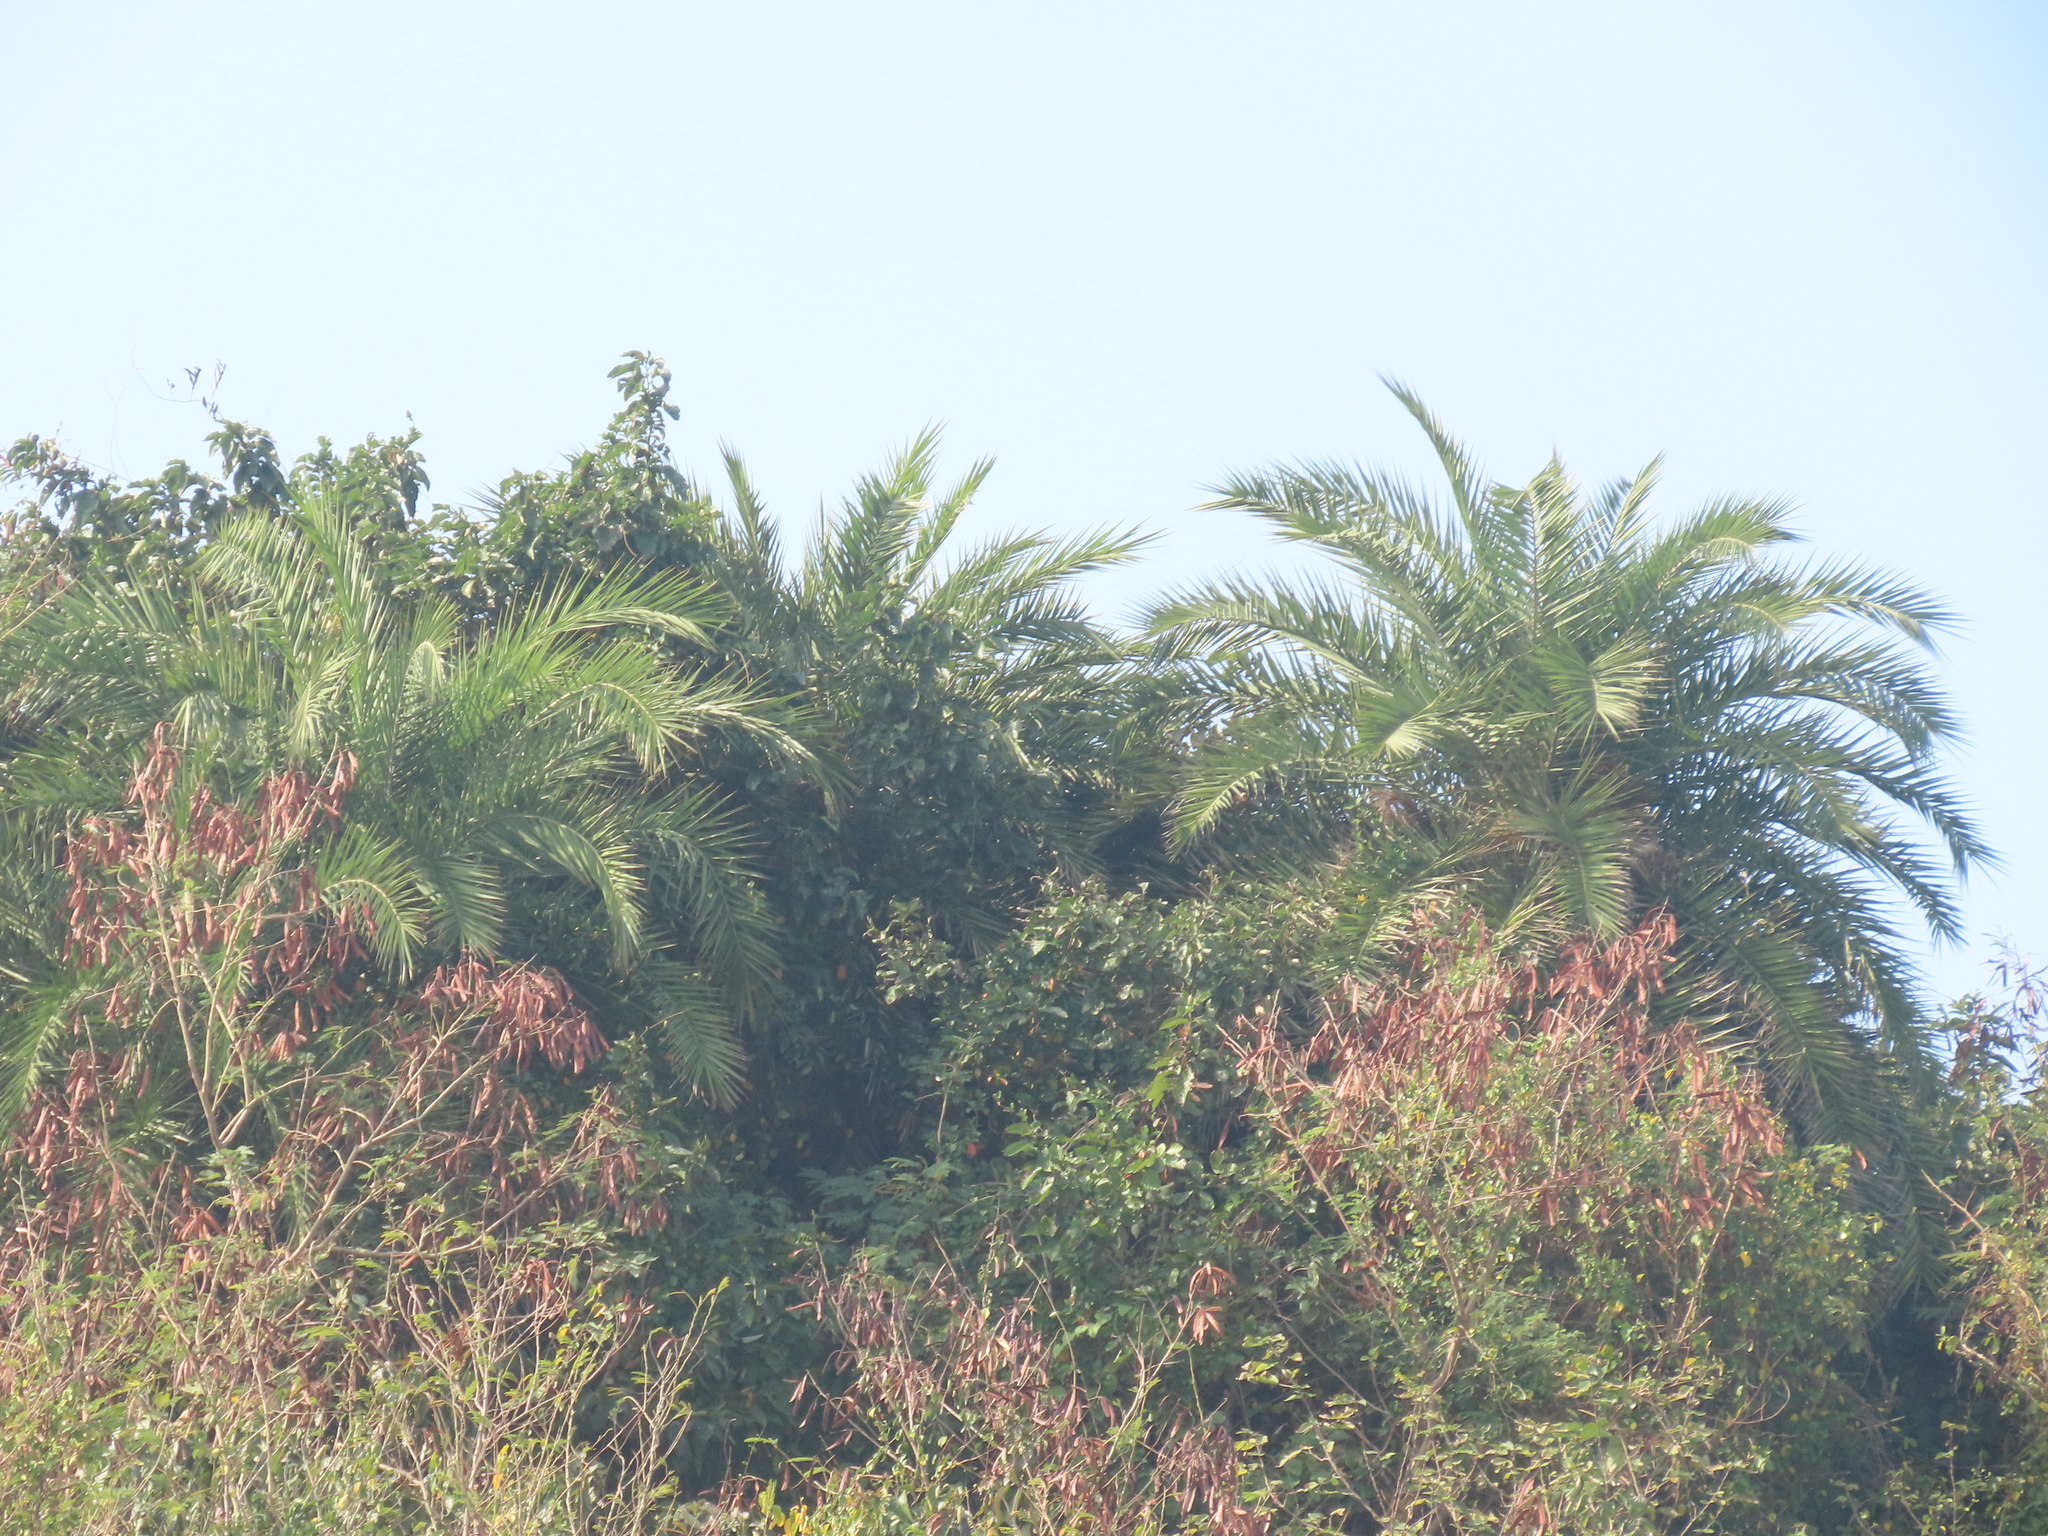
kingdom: Plantae
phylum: Tracheophyta
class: Liliopsida
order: Arecales
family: Arecaceae
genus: Phoenix
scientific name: Phoenix loureiroi
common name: Loureiro's palm
